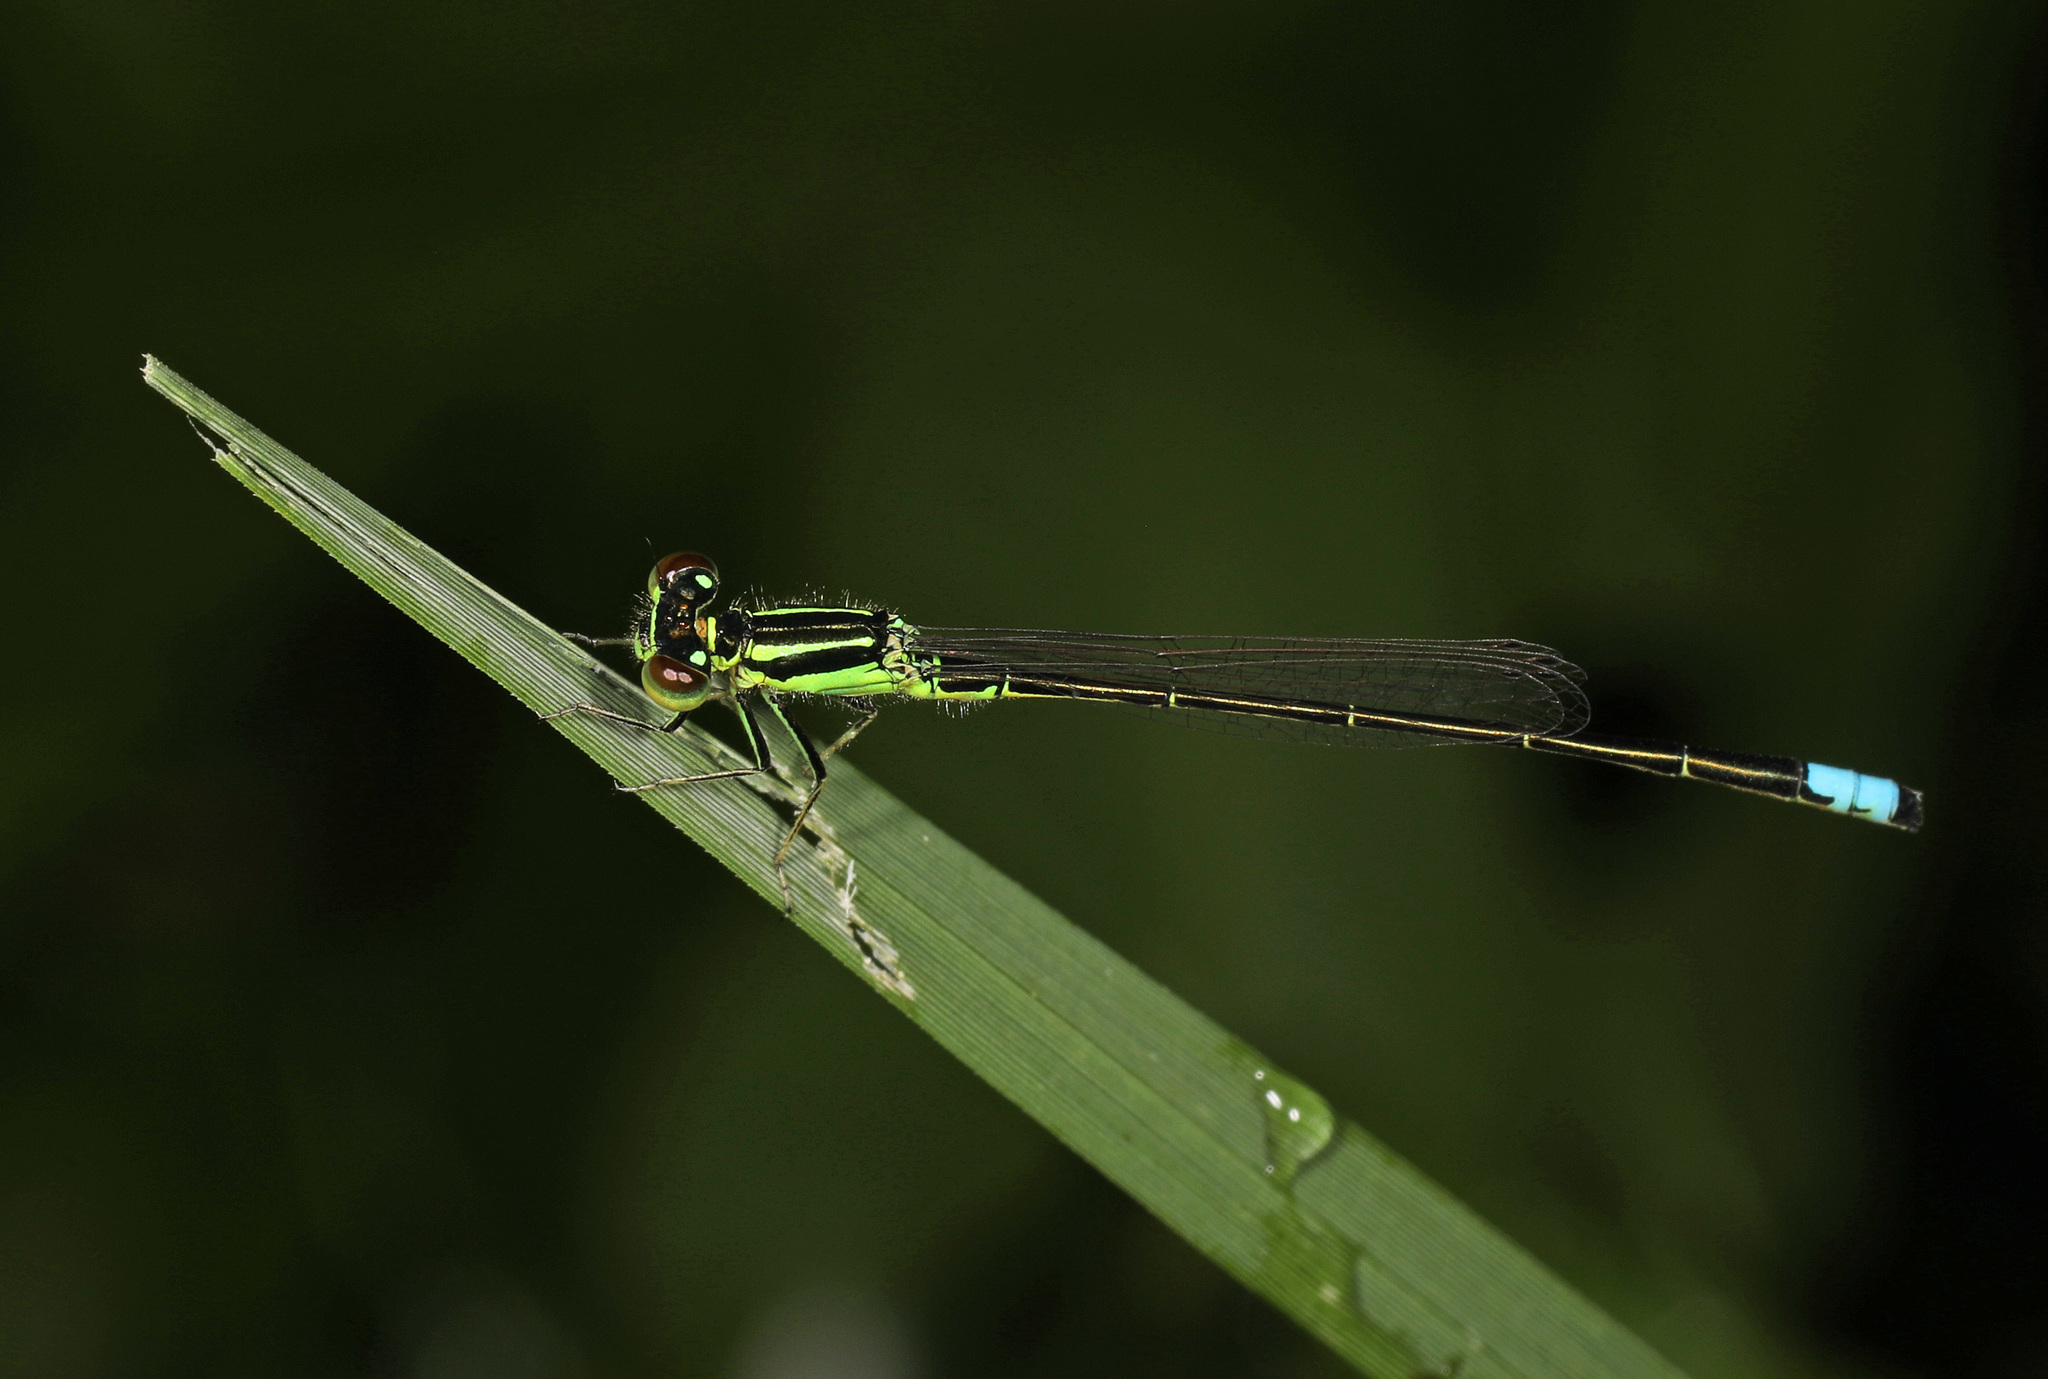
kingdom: Animalia
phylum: Arthropoda
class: Insecta
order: Odonata
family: Coenagrionidae
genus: Ischnura
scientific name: Ischnura verticalis
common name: Eastern forktail
